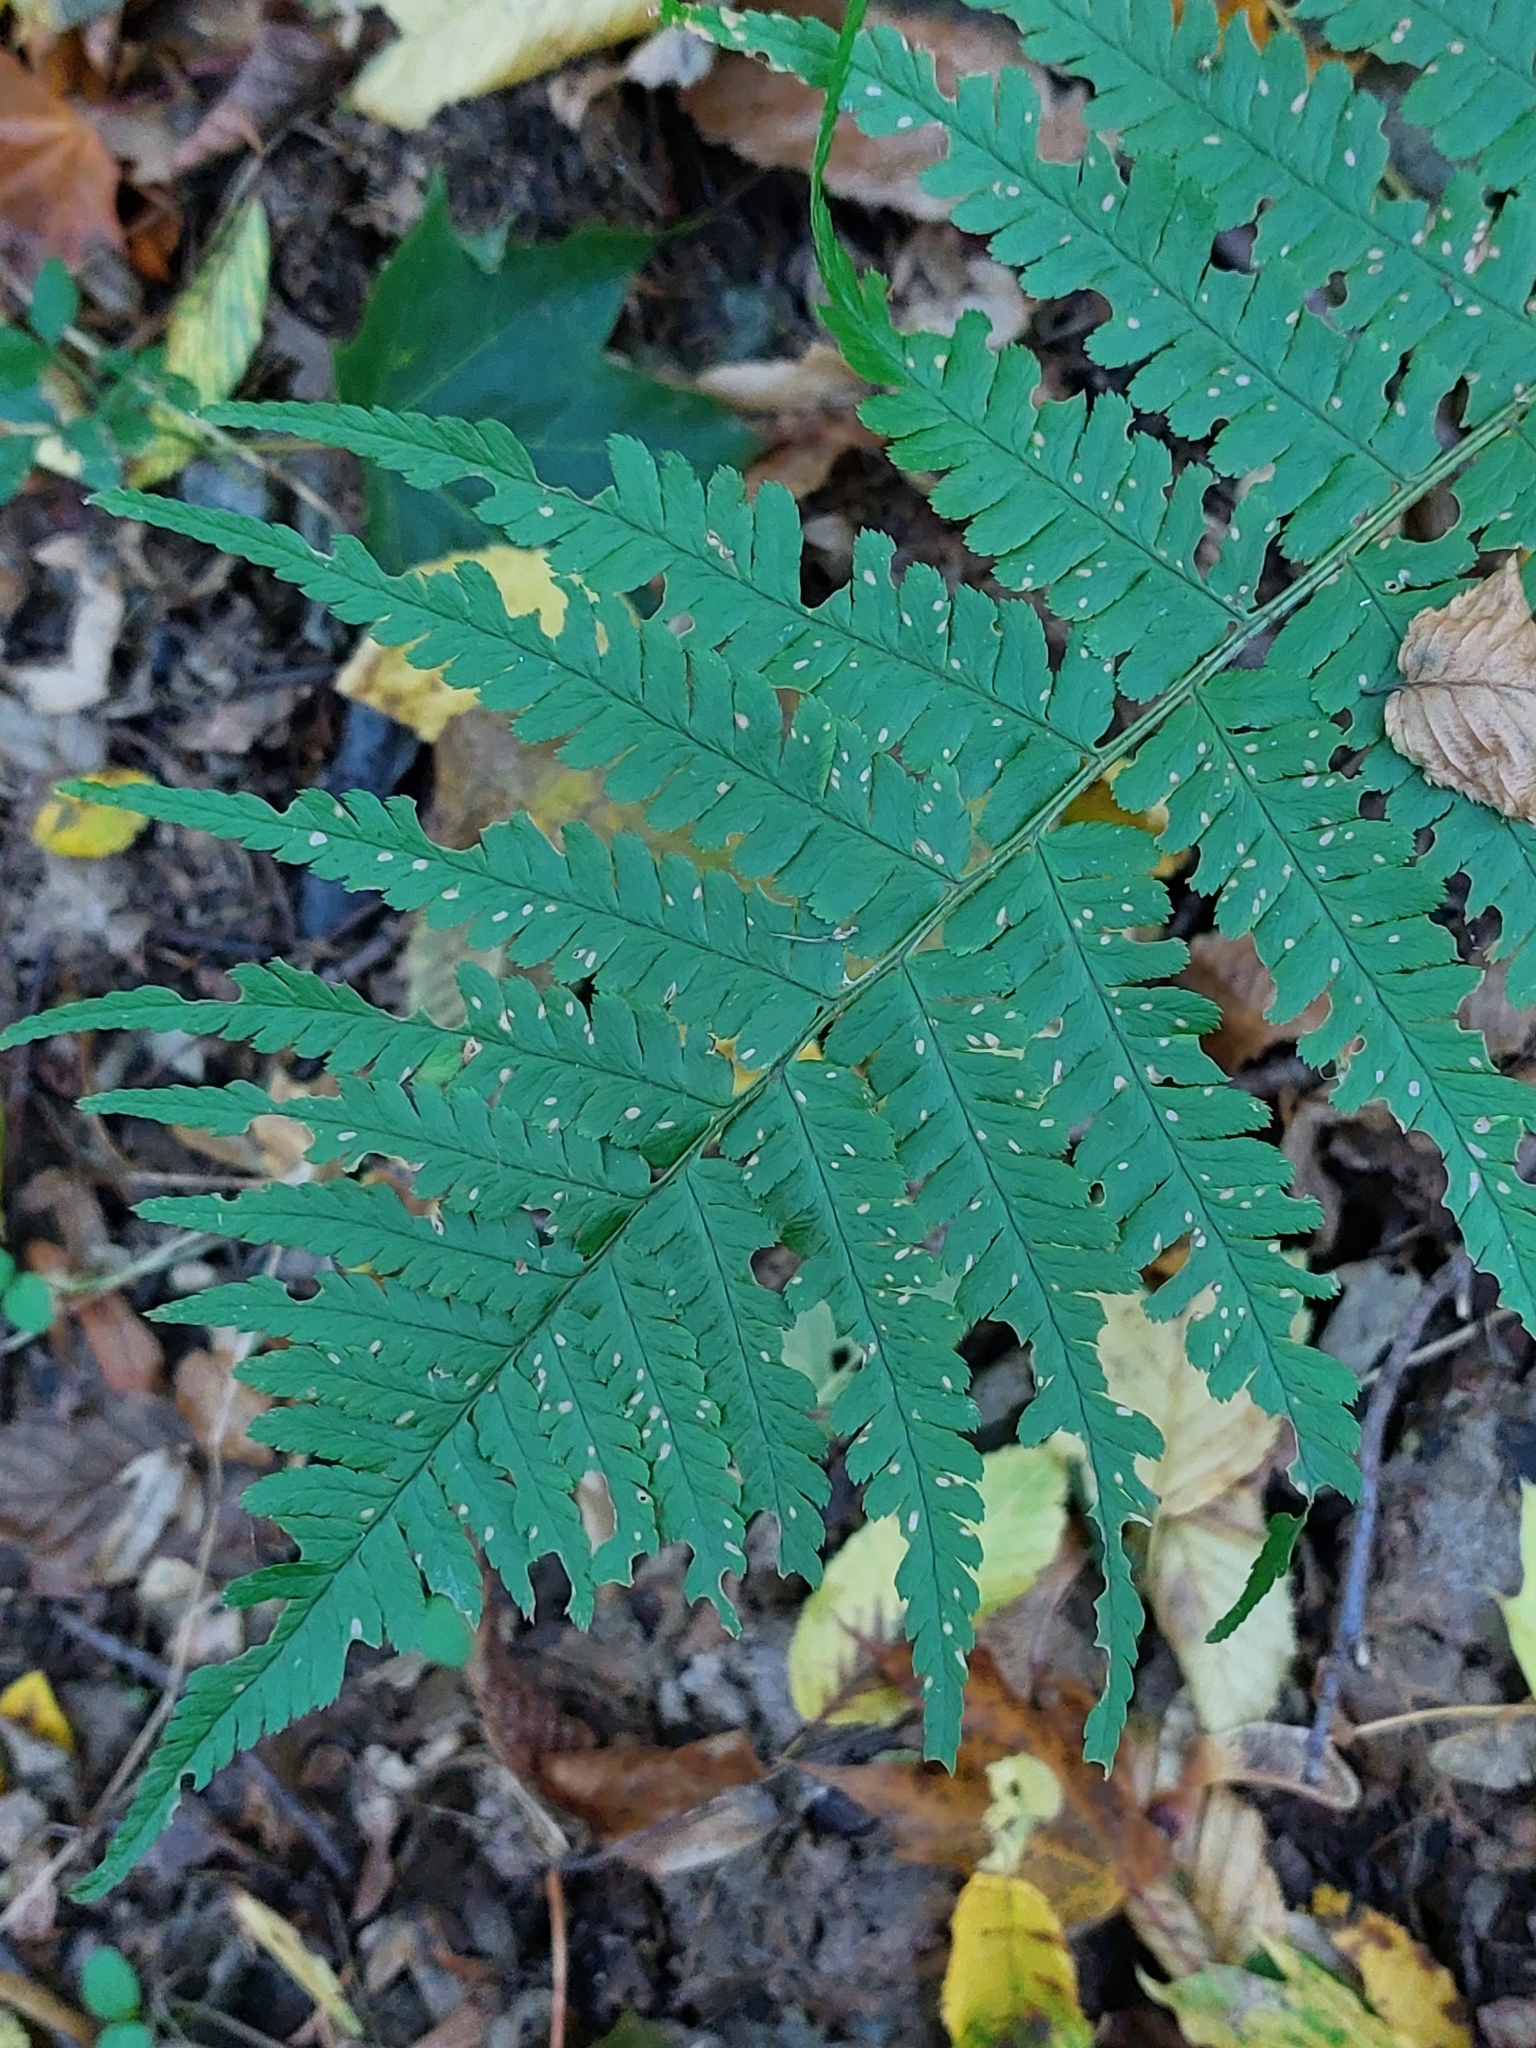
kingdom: Plantae
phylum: Tracheophyta
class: Polypodiopsida
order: Polypodiales
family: Dryopteridaceae
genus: Dryopteris
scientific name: Dryopteris filix-mas
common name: Male fern
